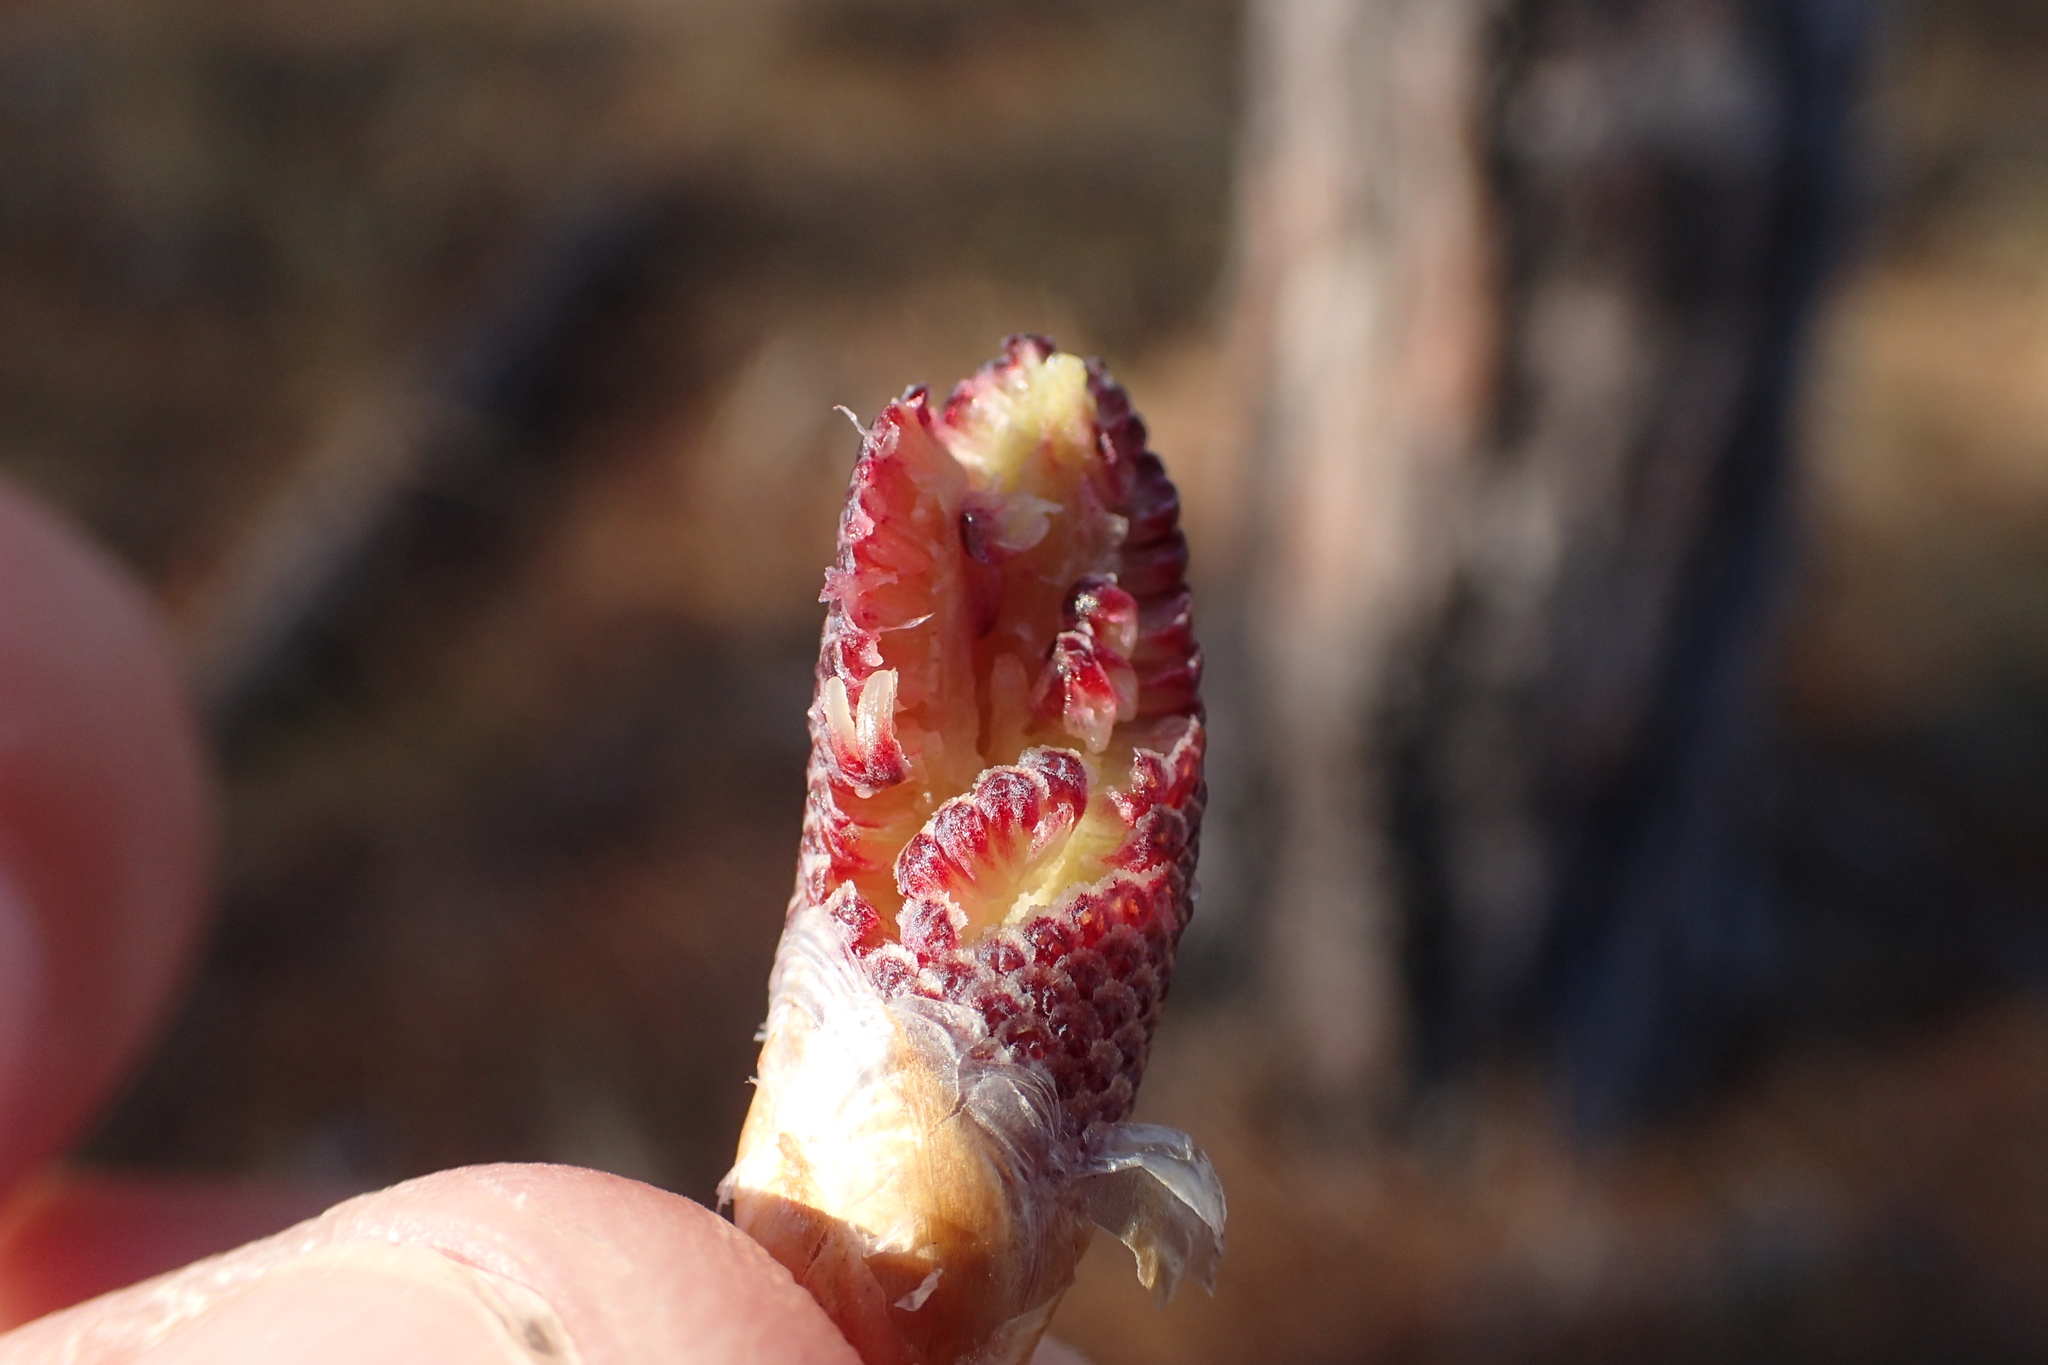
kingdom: Plantae
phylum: Tracheophyta
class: Pinopsida
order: Pinales
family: Pinaceae
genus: Pinus
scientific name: Pinus palustris
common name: Longleaf pine
